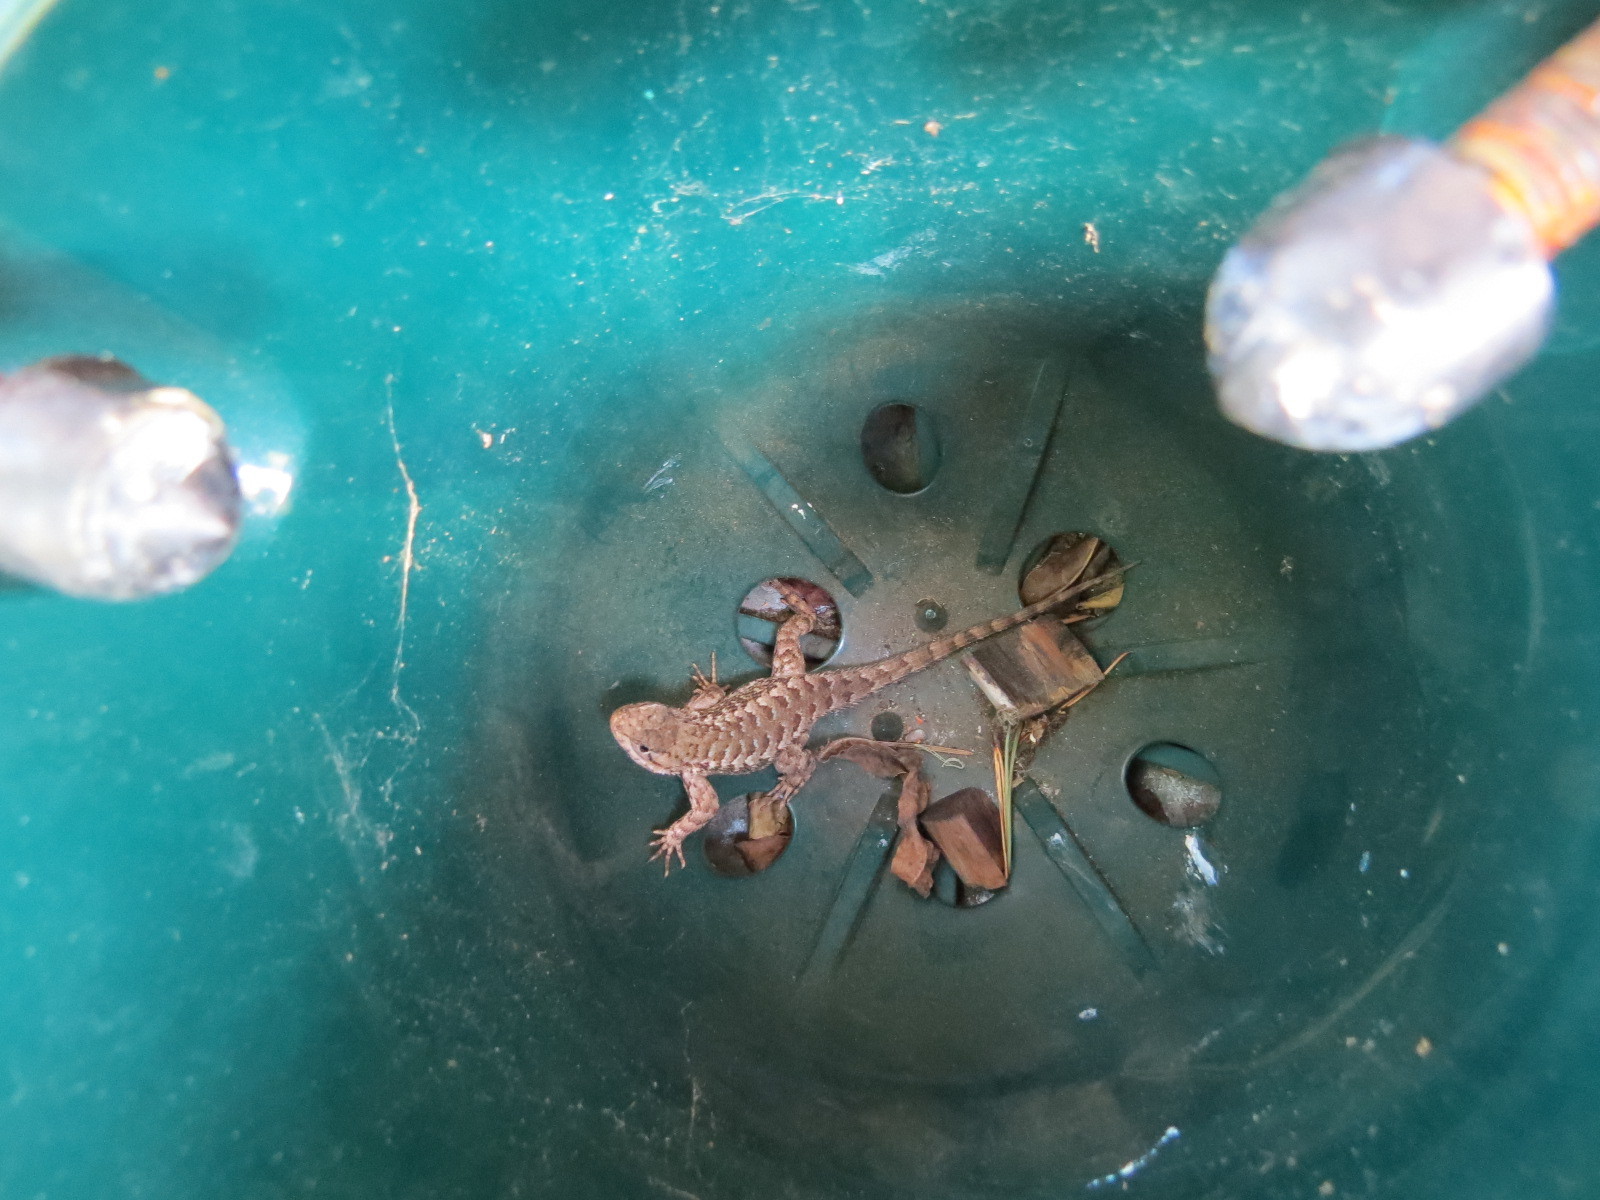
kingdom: Animalia
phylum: Chordata
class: Squamata
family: Phrynosomatidae
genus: Sceloporus
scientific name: Sceloporus occidentalis
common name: Western fence lizard
